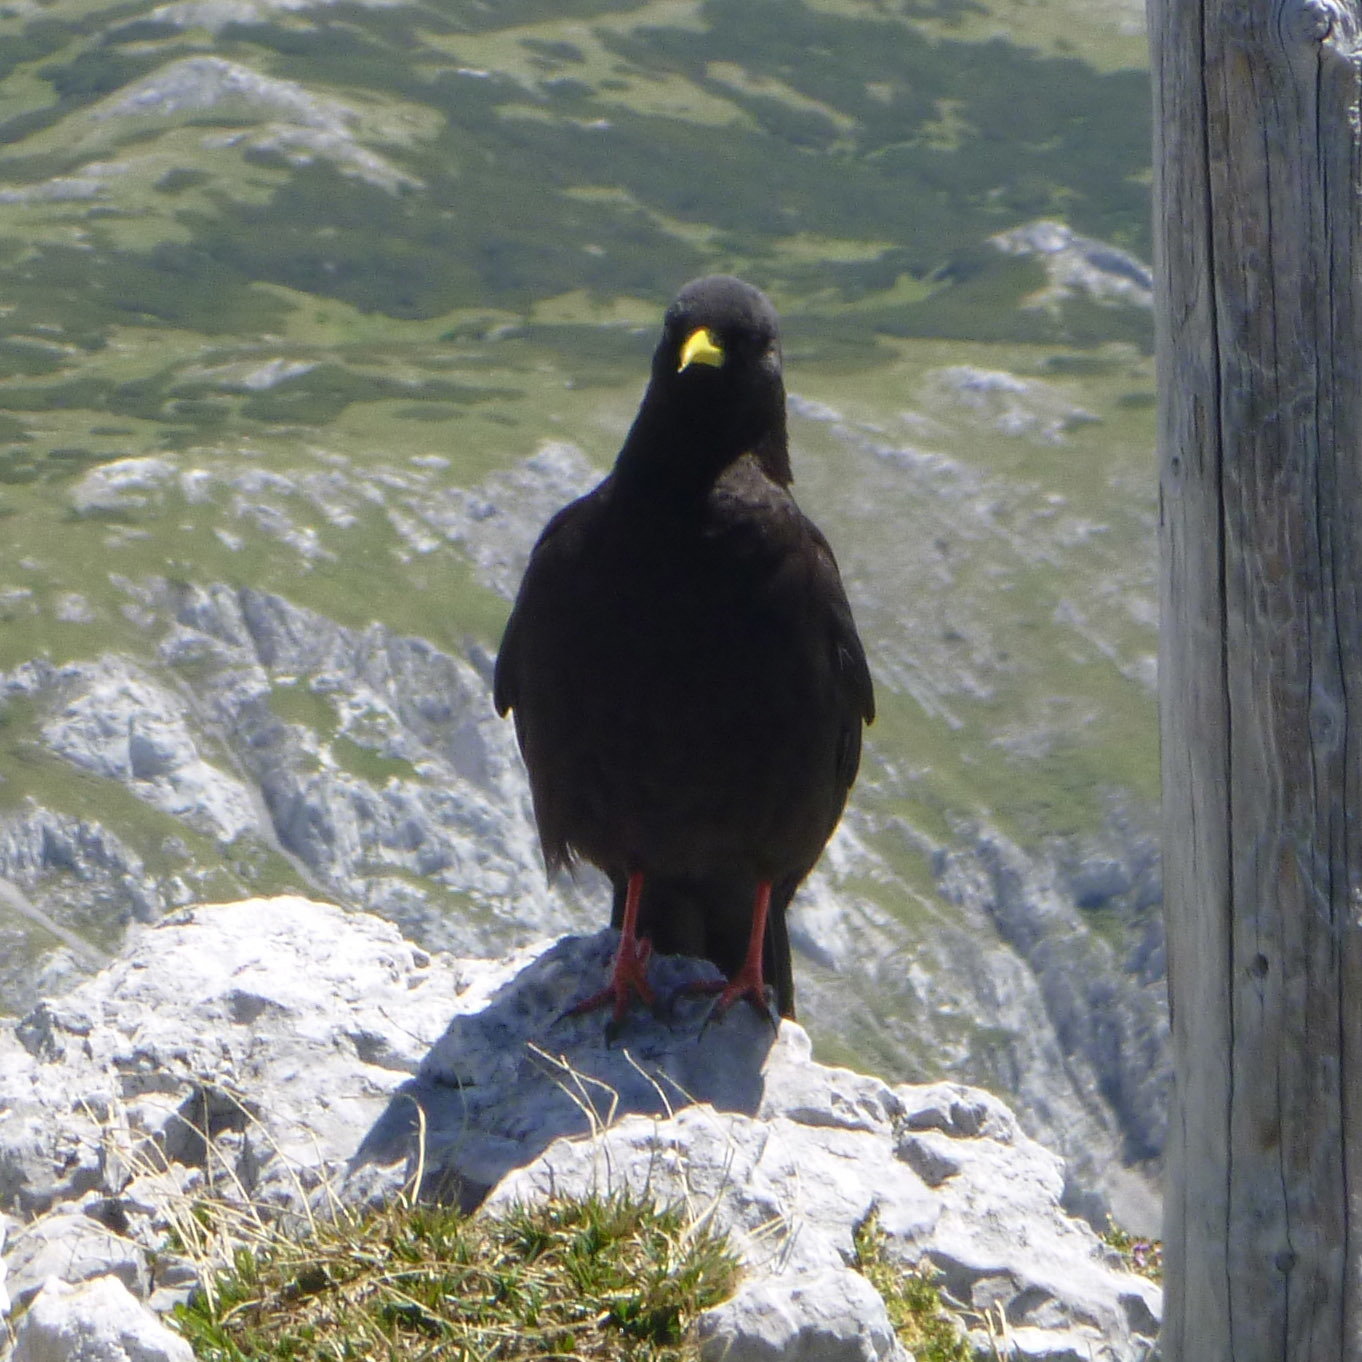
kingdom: Animalia
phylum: Chordata
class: Aves
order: Passeriformes
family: Corvidae
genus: Pyrrhocorax
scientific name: Pyrrhocorax graculus
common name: Alpine chough
